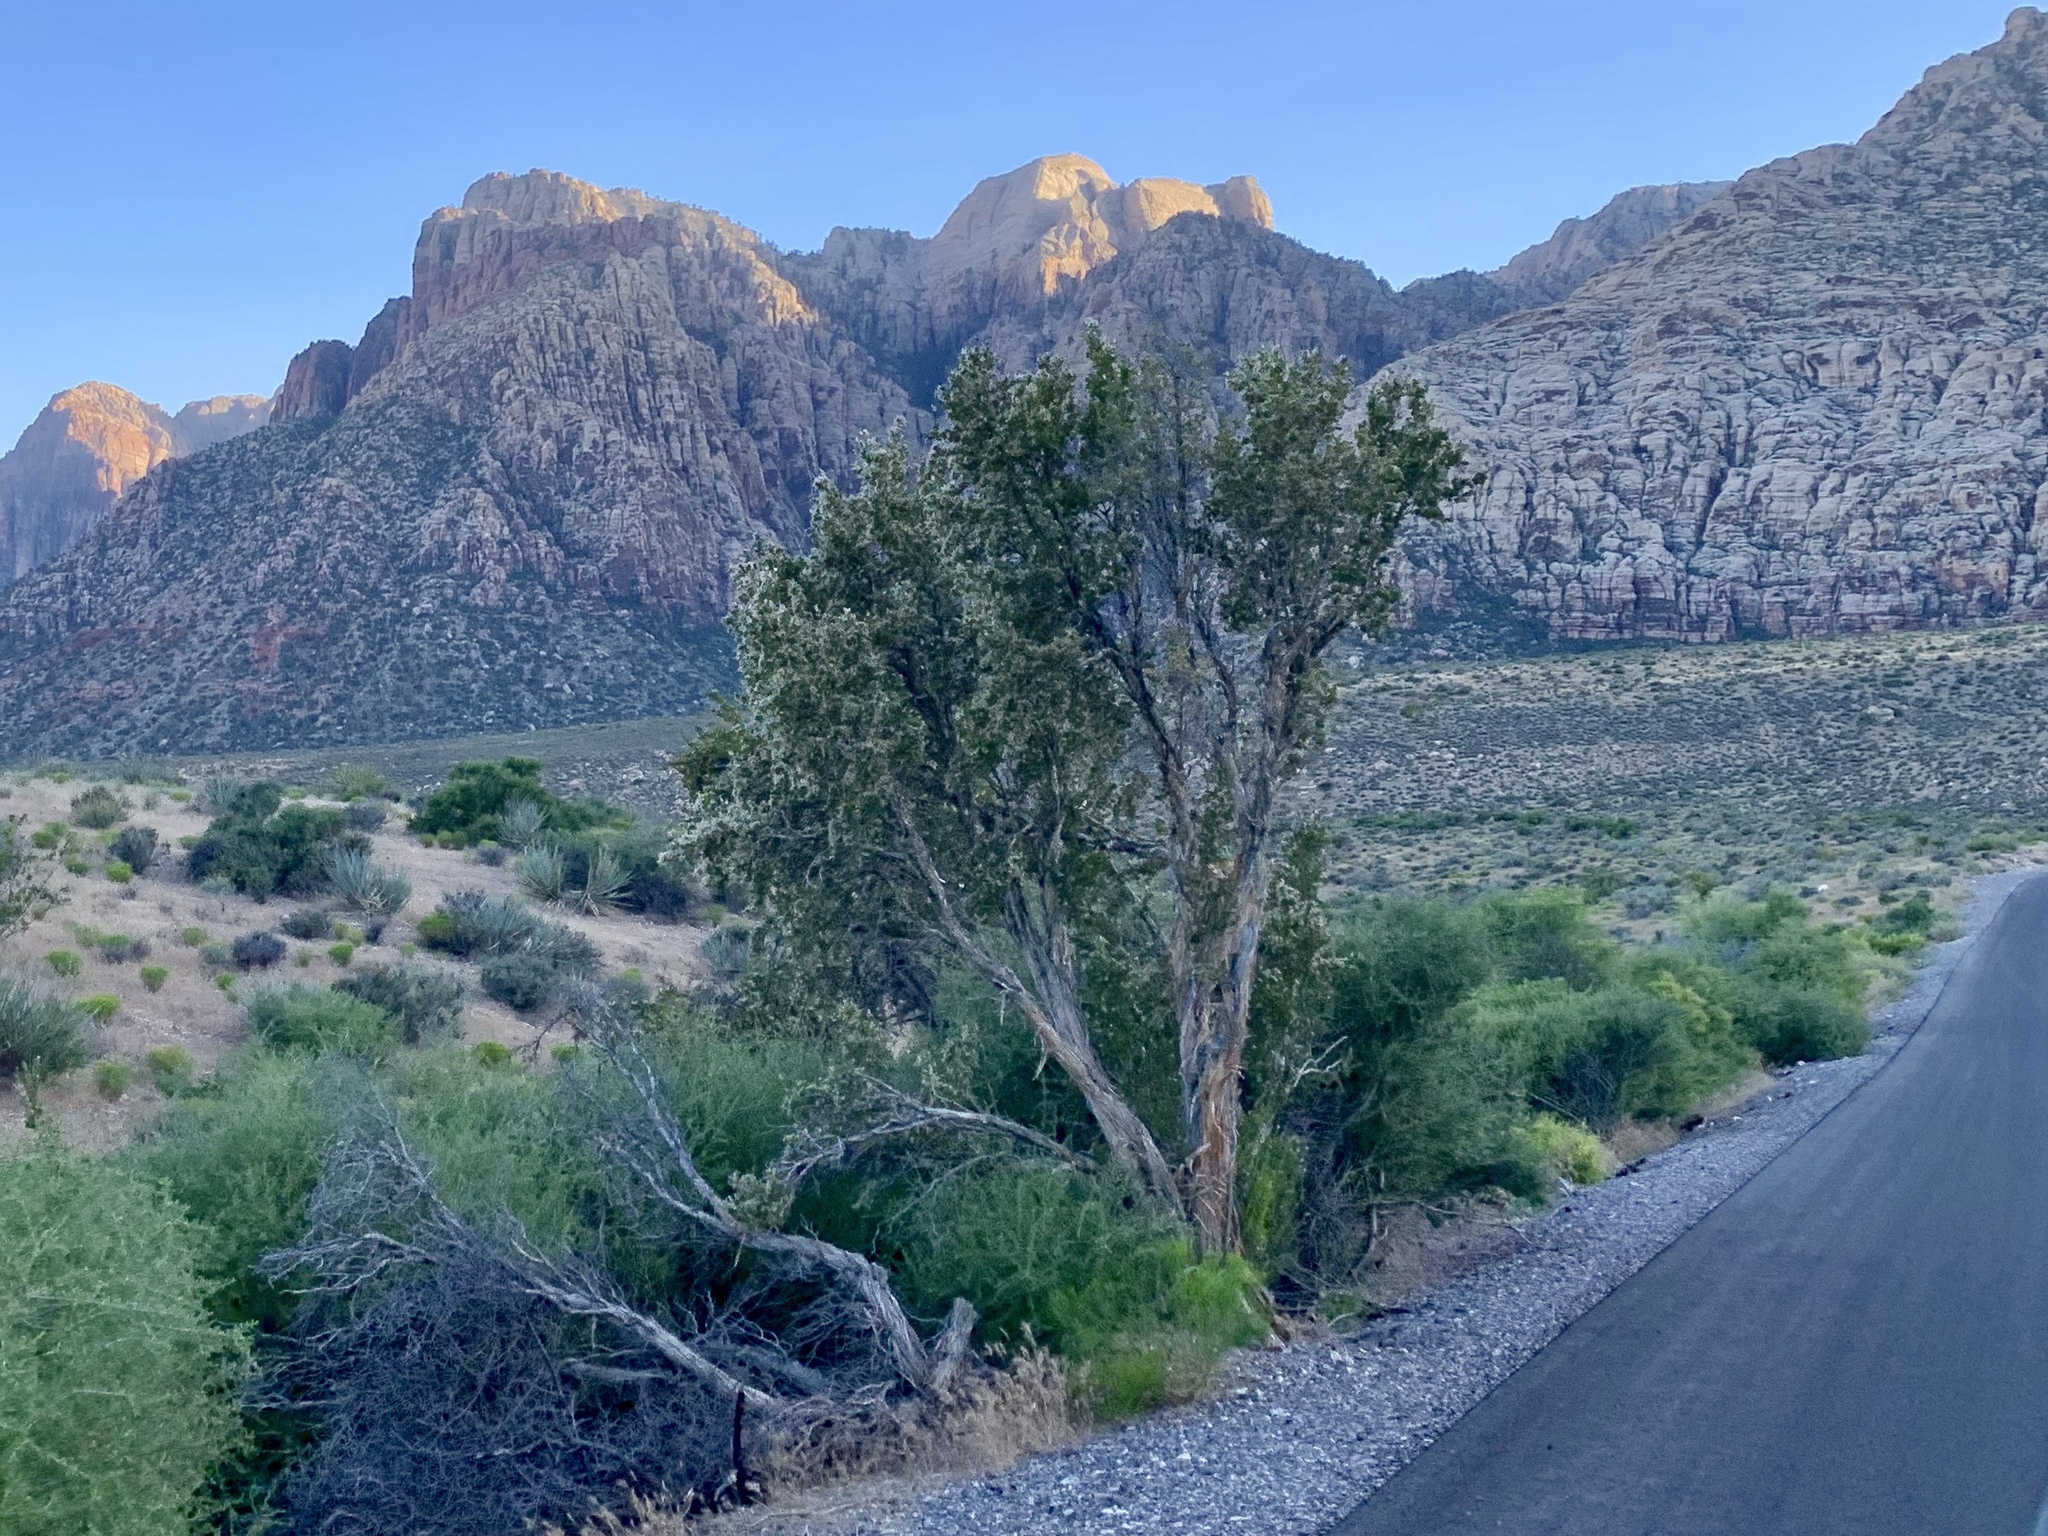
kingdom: Plantae
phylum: Tracheophyta
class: Magnoliopsida
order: Rosales
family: Rosaceae
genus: Purshia
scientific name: Purshia stansburiana
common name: Stansbury's cliffrose
